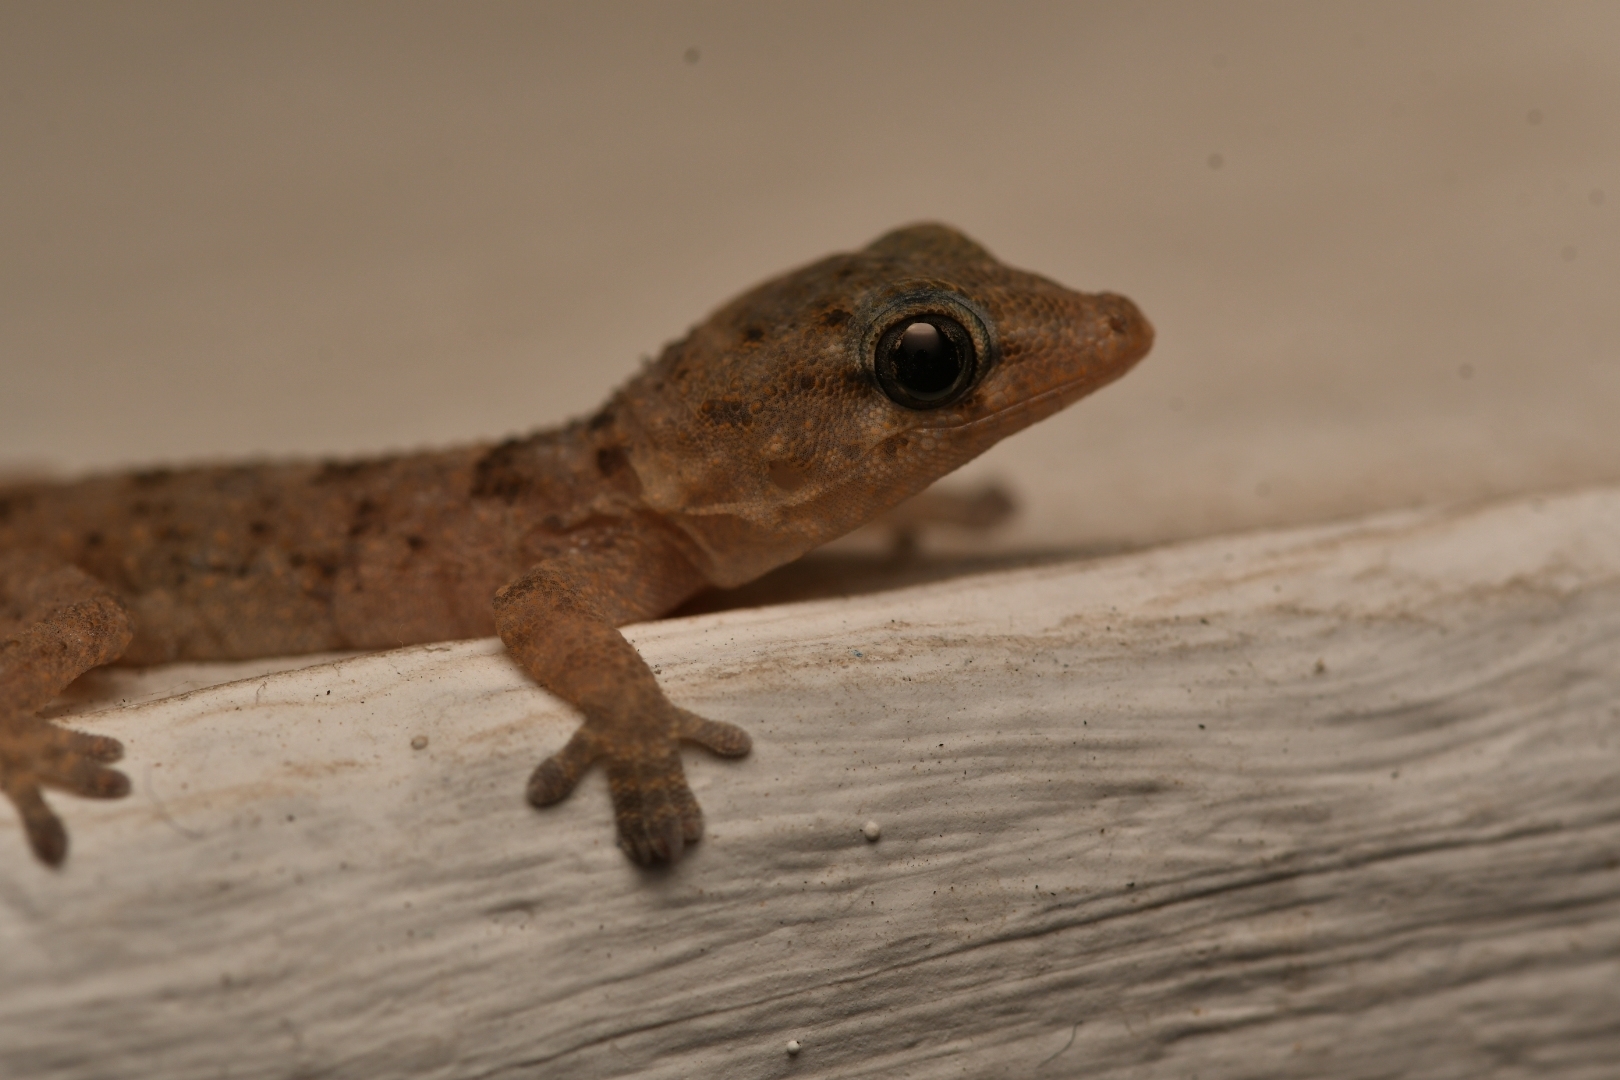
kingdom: Animalia
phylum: Chordata
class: Squamata
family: Phyllodactylidae
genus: Tarentola
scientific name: Tarentola delalandii
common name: Tenerife wall gecko
